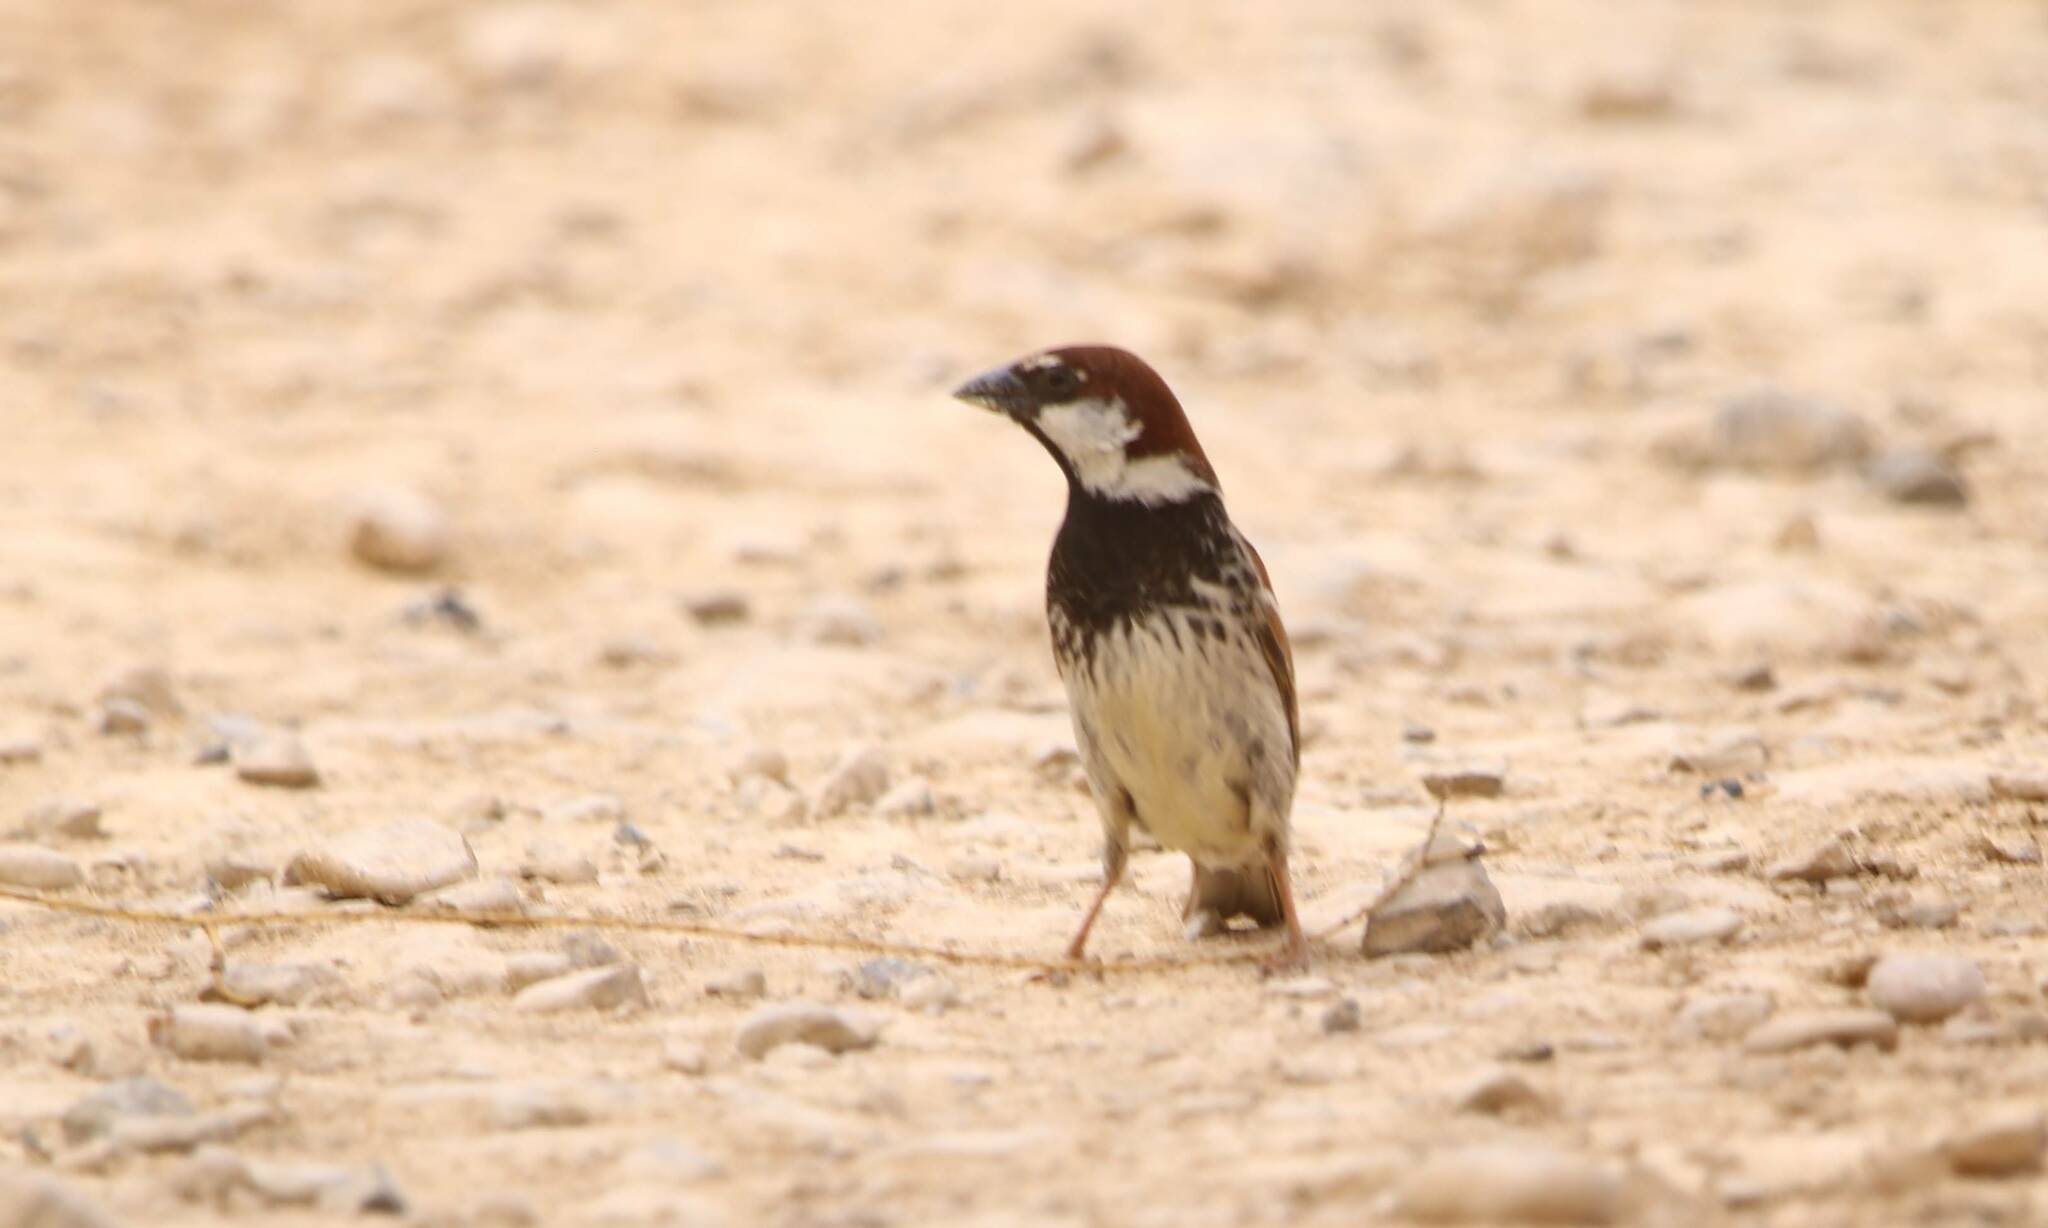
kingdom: Animalia
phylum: Chordata
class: Aves
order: Passeriformes
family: Passeridae
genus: Passer
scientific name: Passer hispaniolensis
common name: Spanish sparrow
